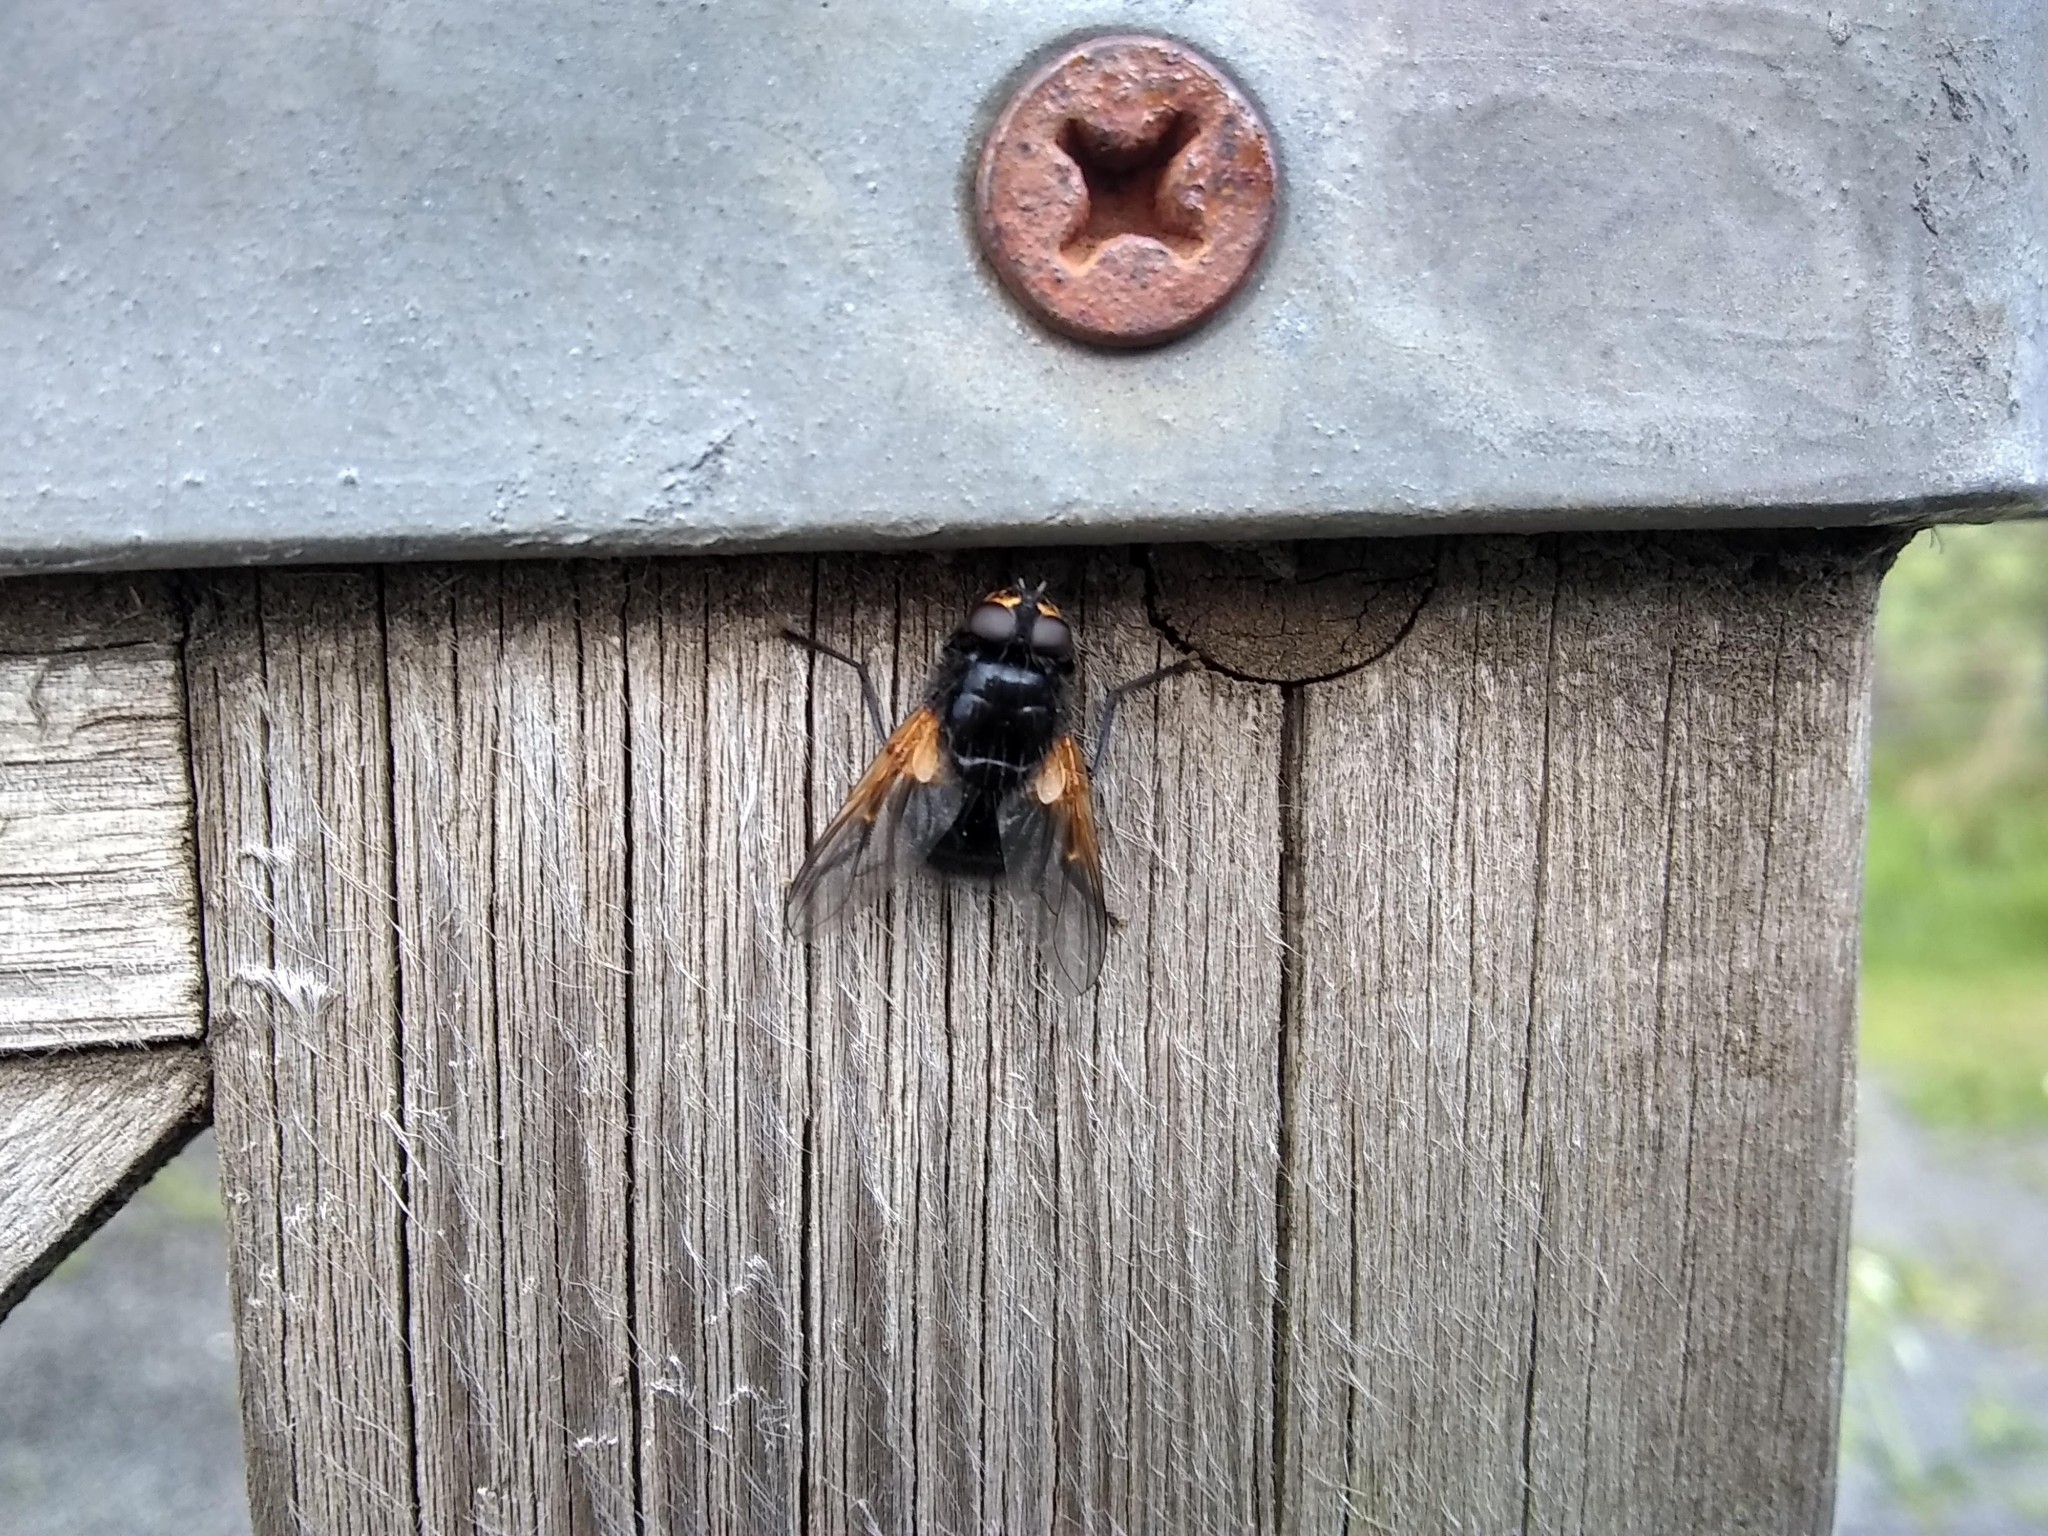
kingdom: Animalia
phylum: Arthropoda
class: Insecta
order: Diptera
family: Muscidae
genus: Mesembrina
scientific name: Mesembrina meridiana
